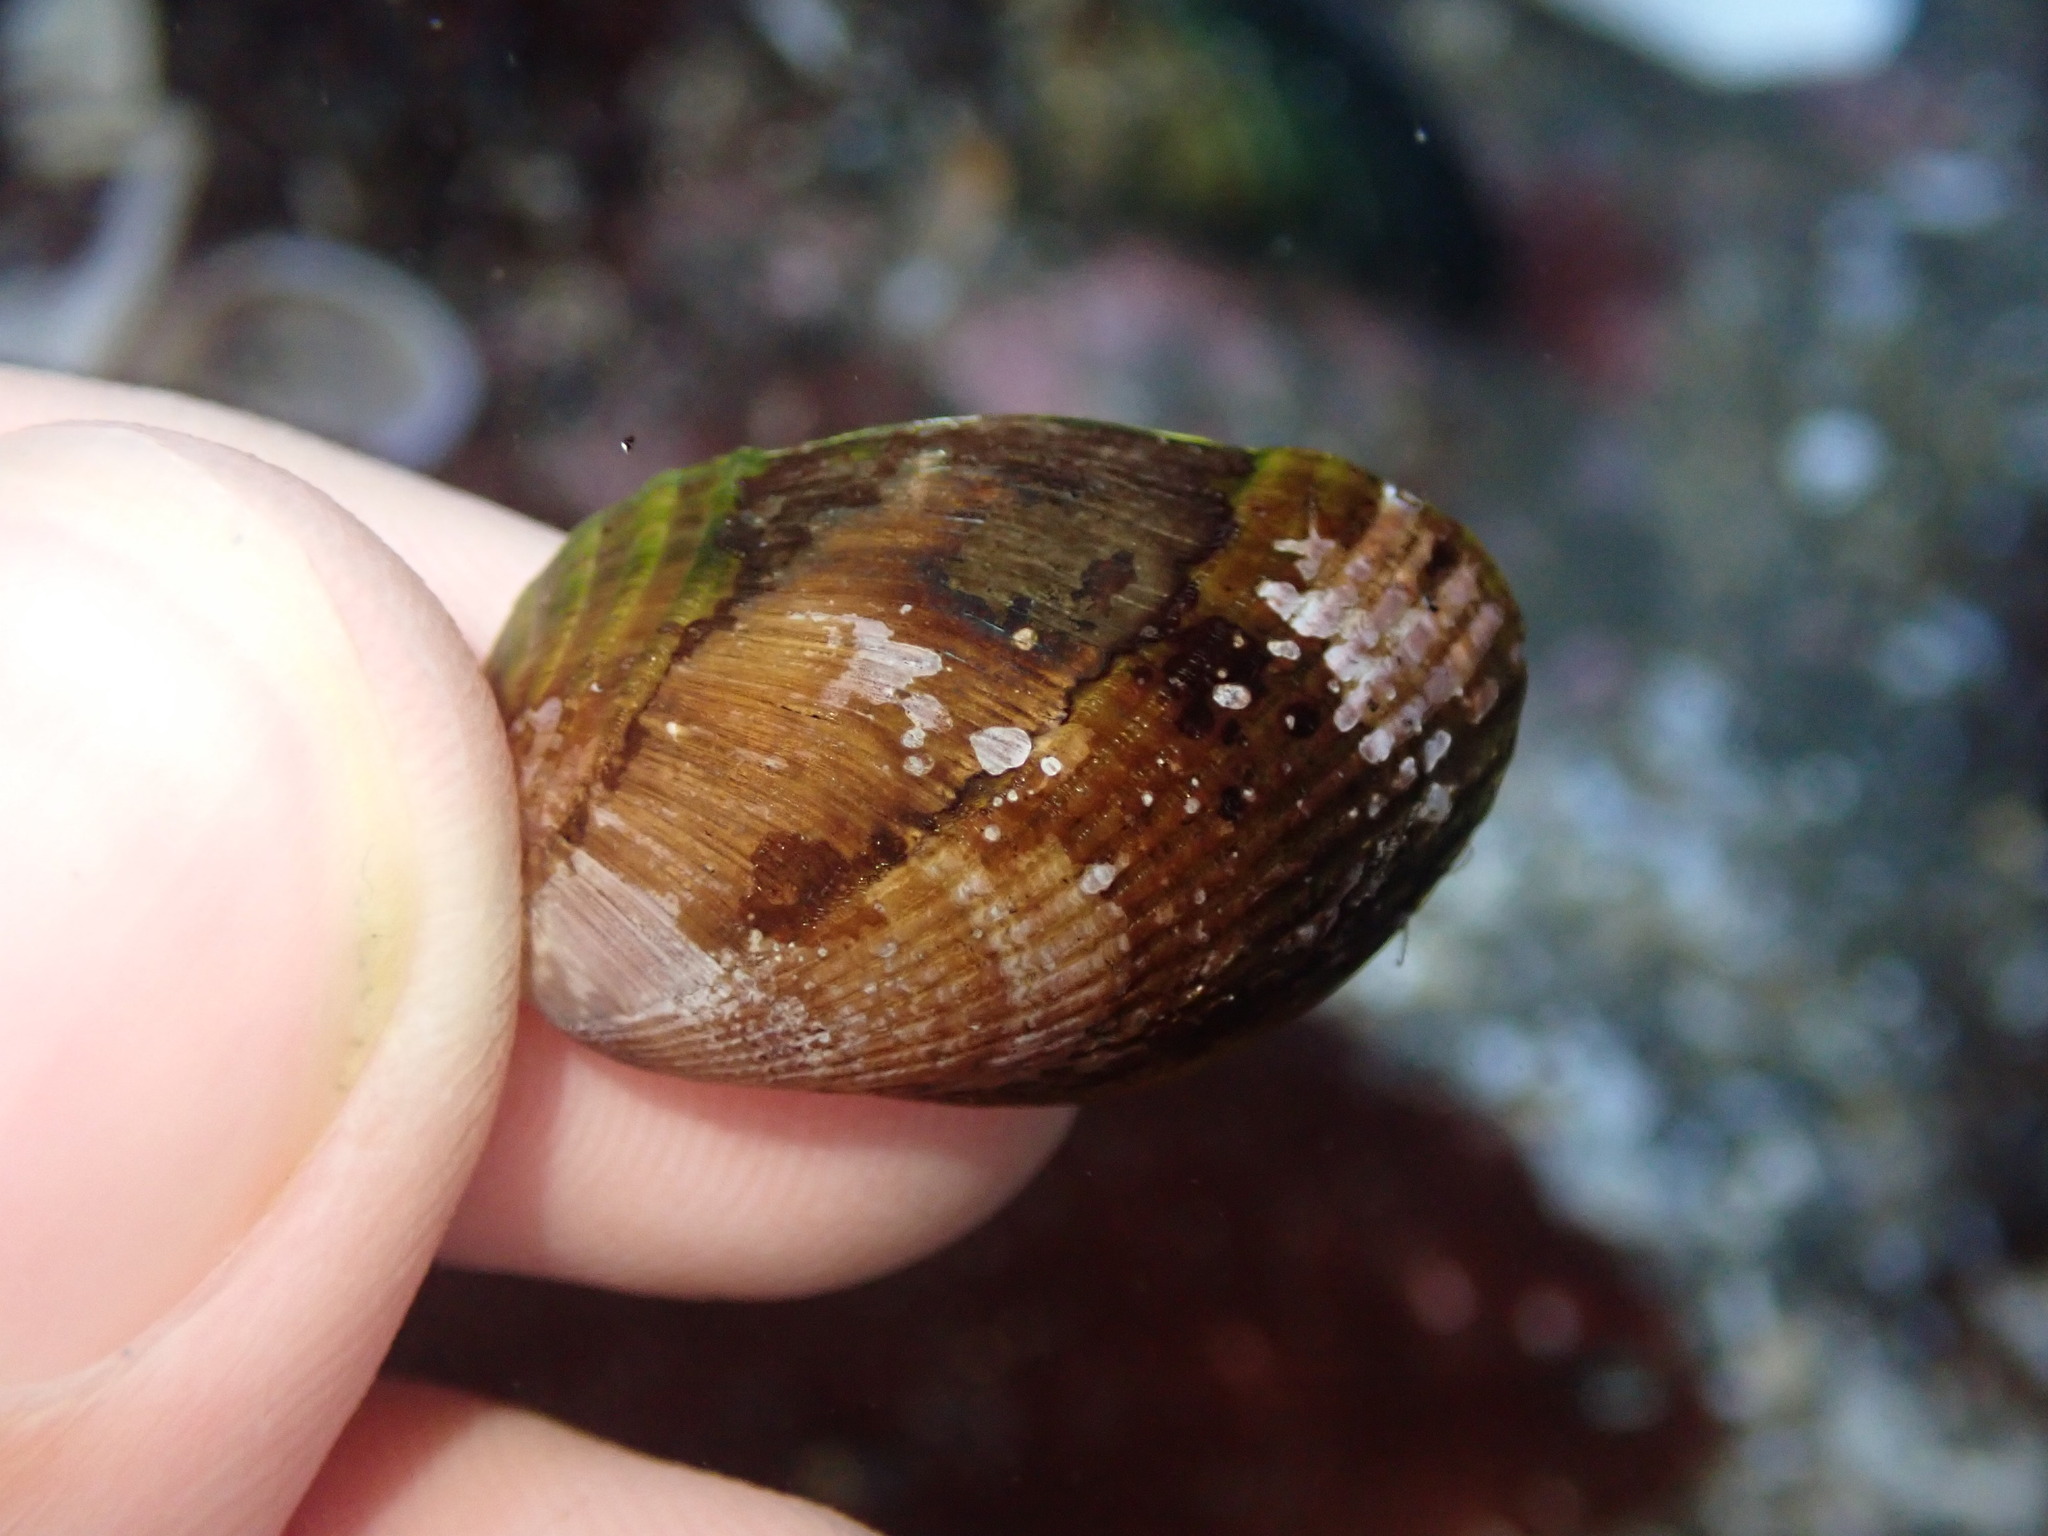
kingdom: Animalia
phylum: Mollusca
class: Bivalvia
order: Mytilida
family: Mytilidae
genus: Musculus
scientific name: Musculus impactus
